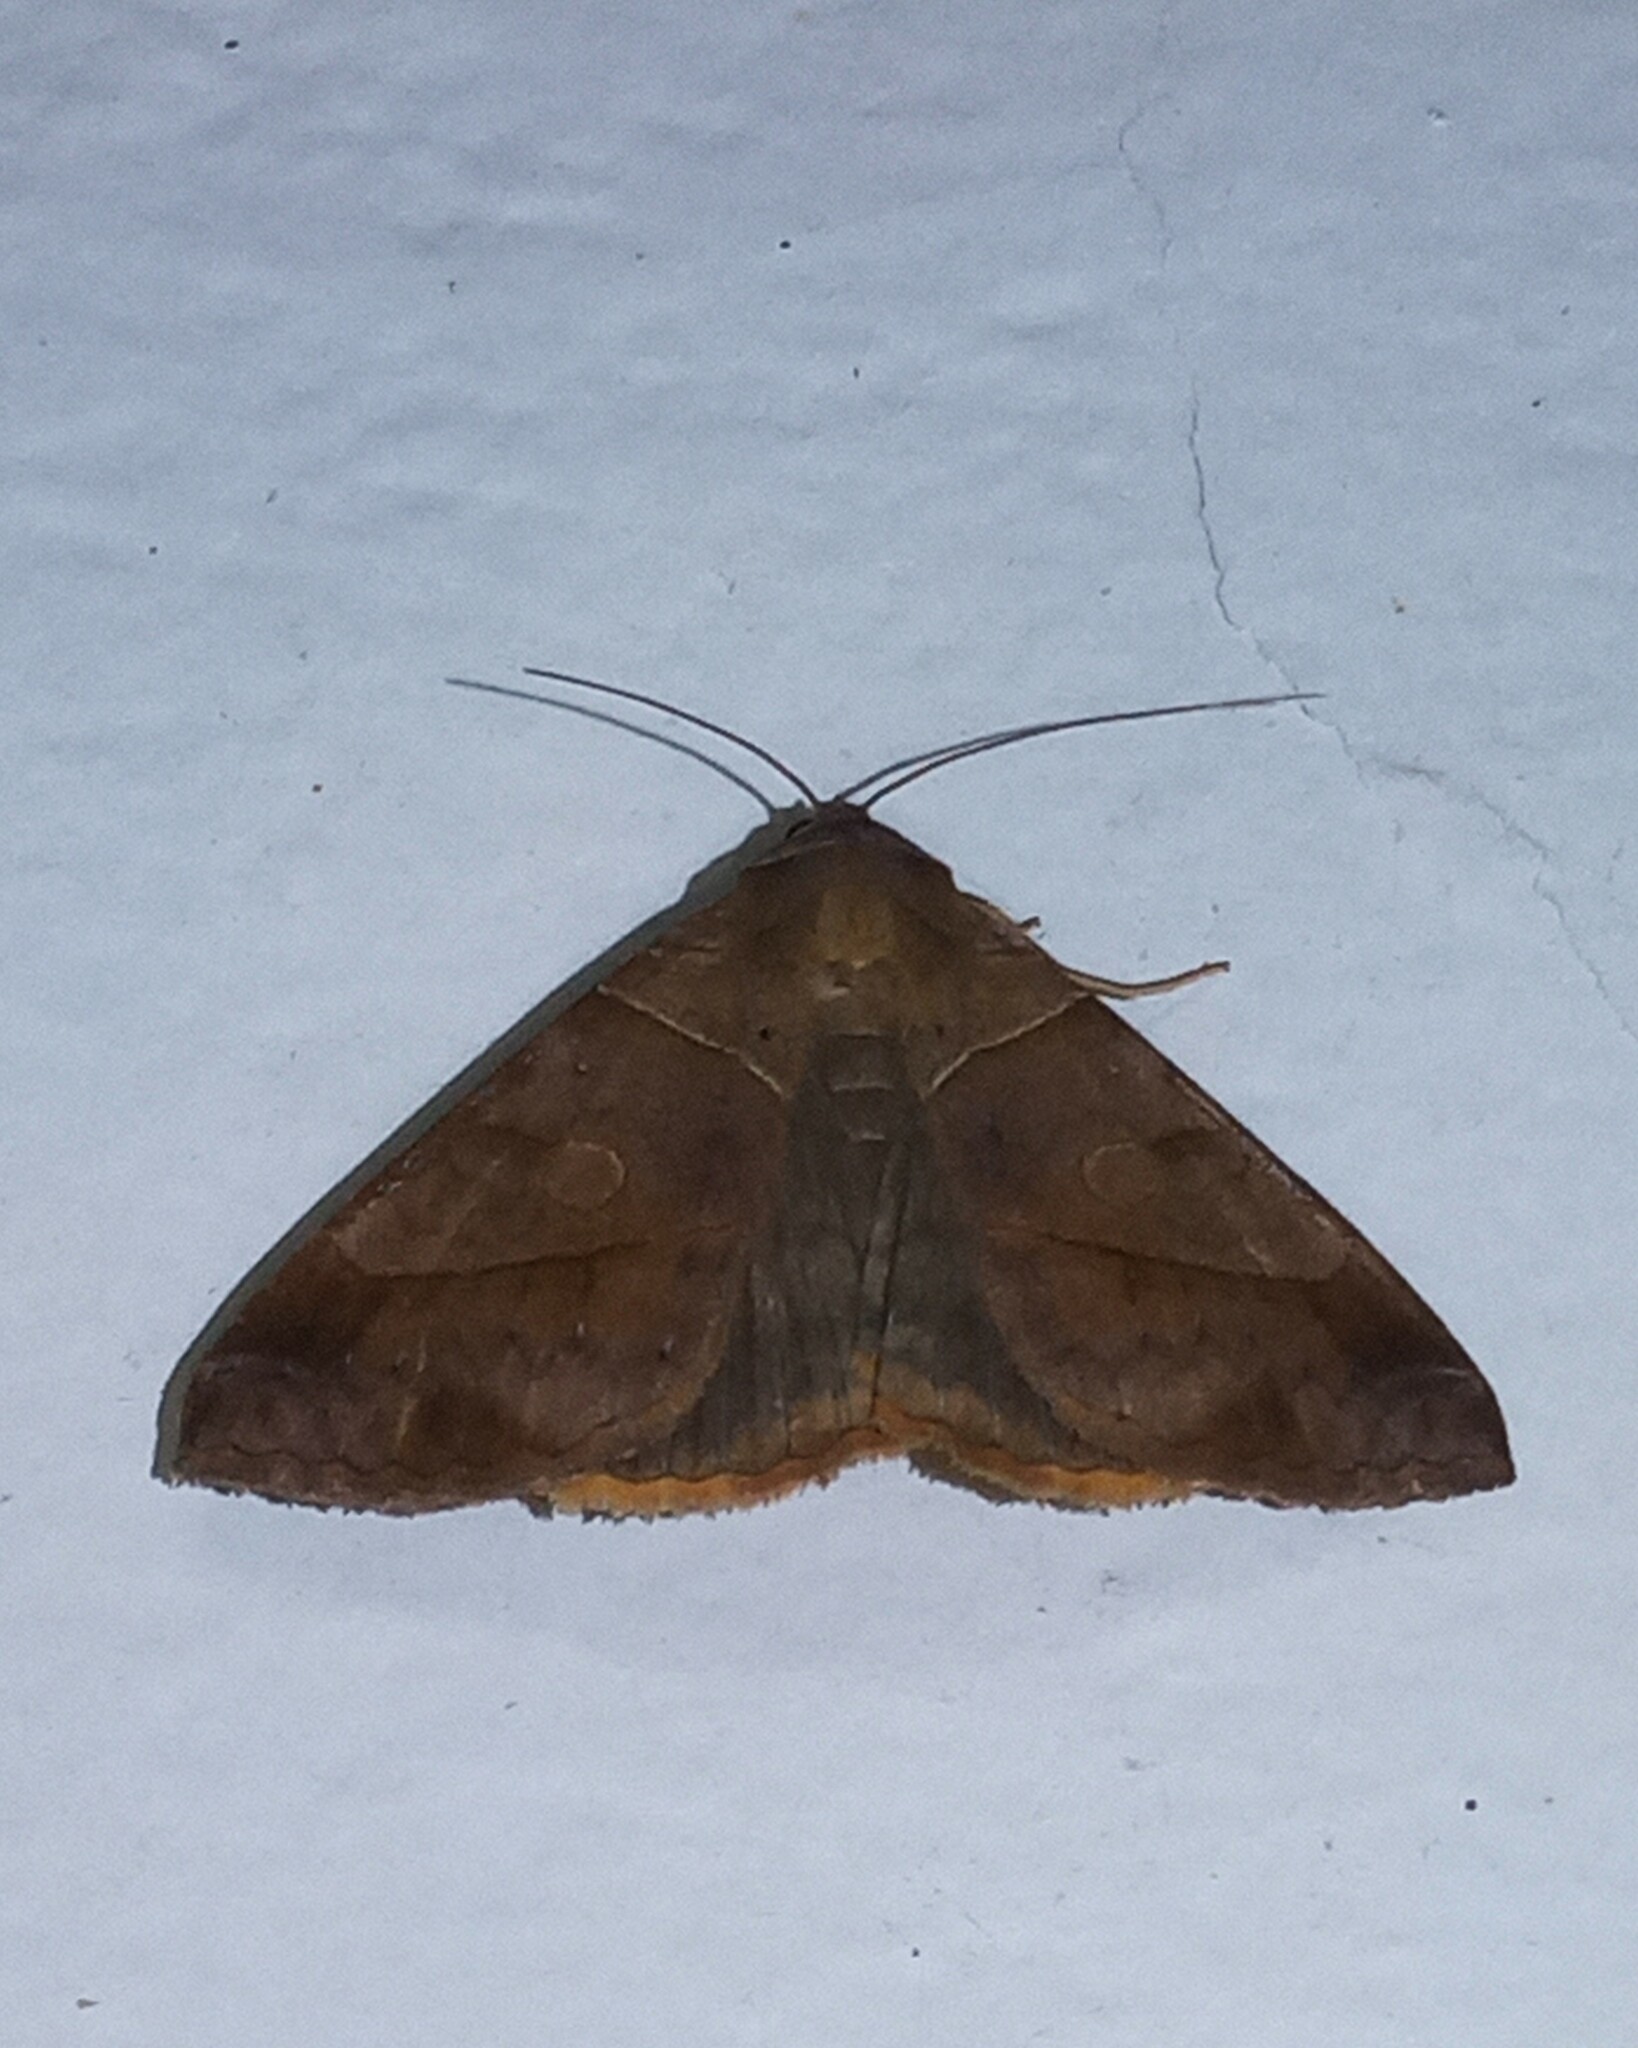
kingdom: Animalia
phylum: Arthropoda
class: Insecta
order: Lepidoptera
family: Erebidae
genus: Mocis
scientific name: Mocis diffluens
